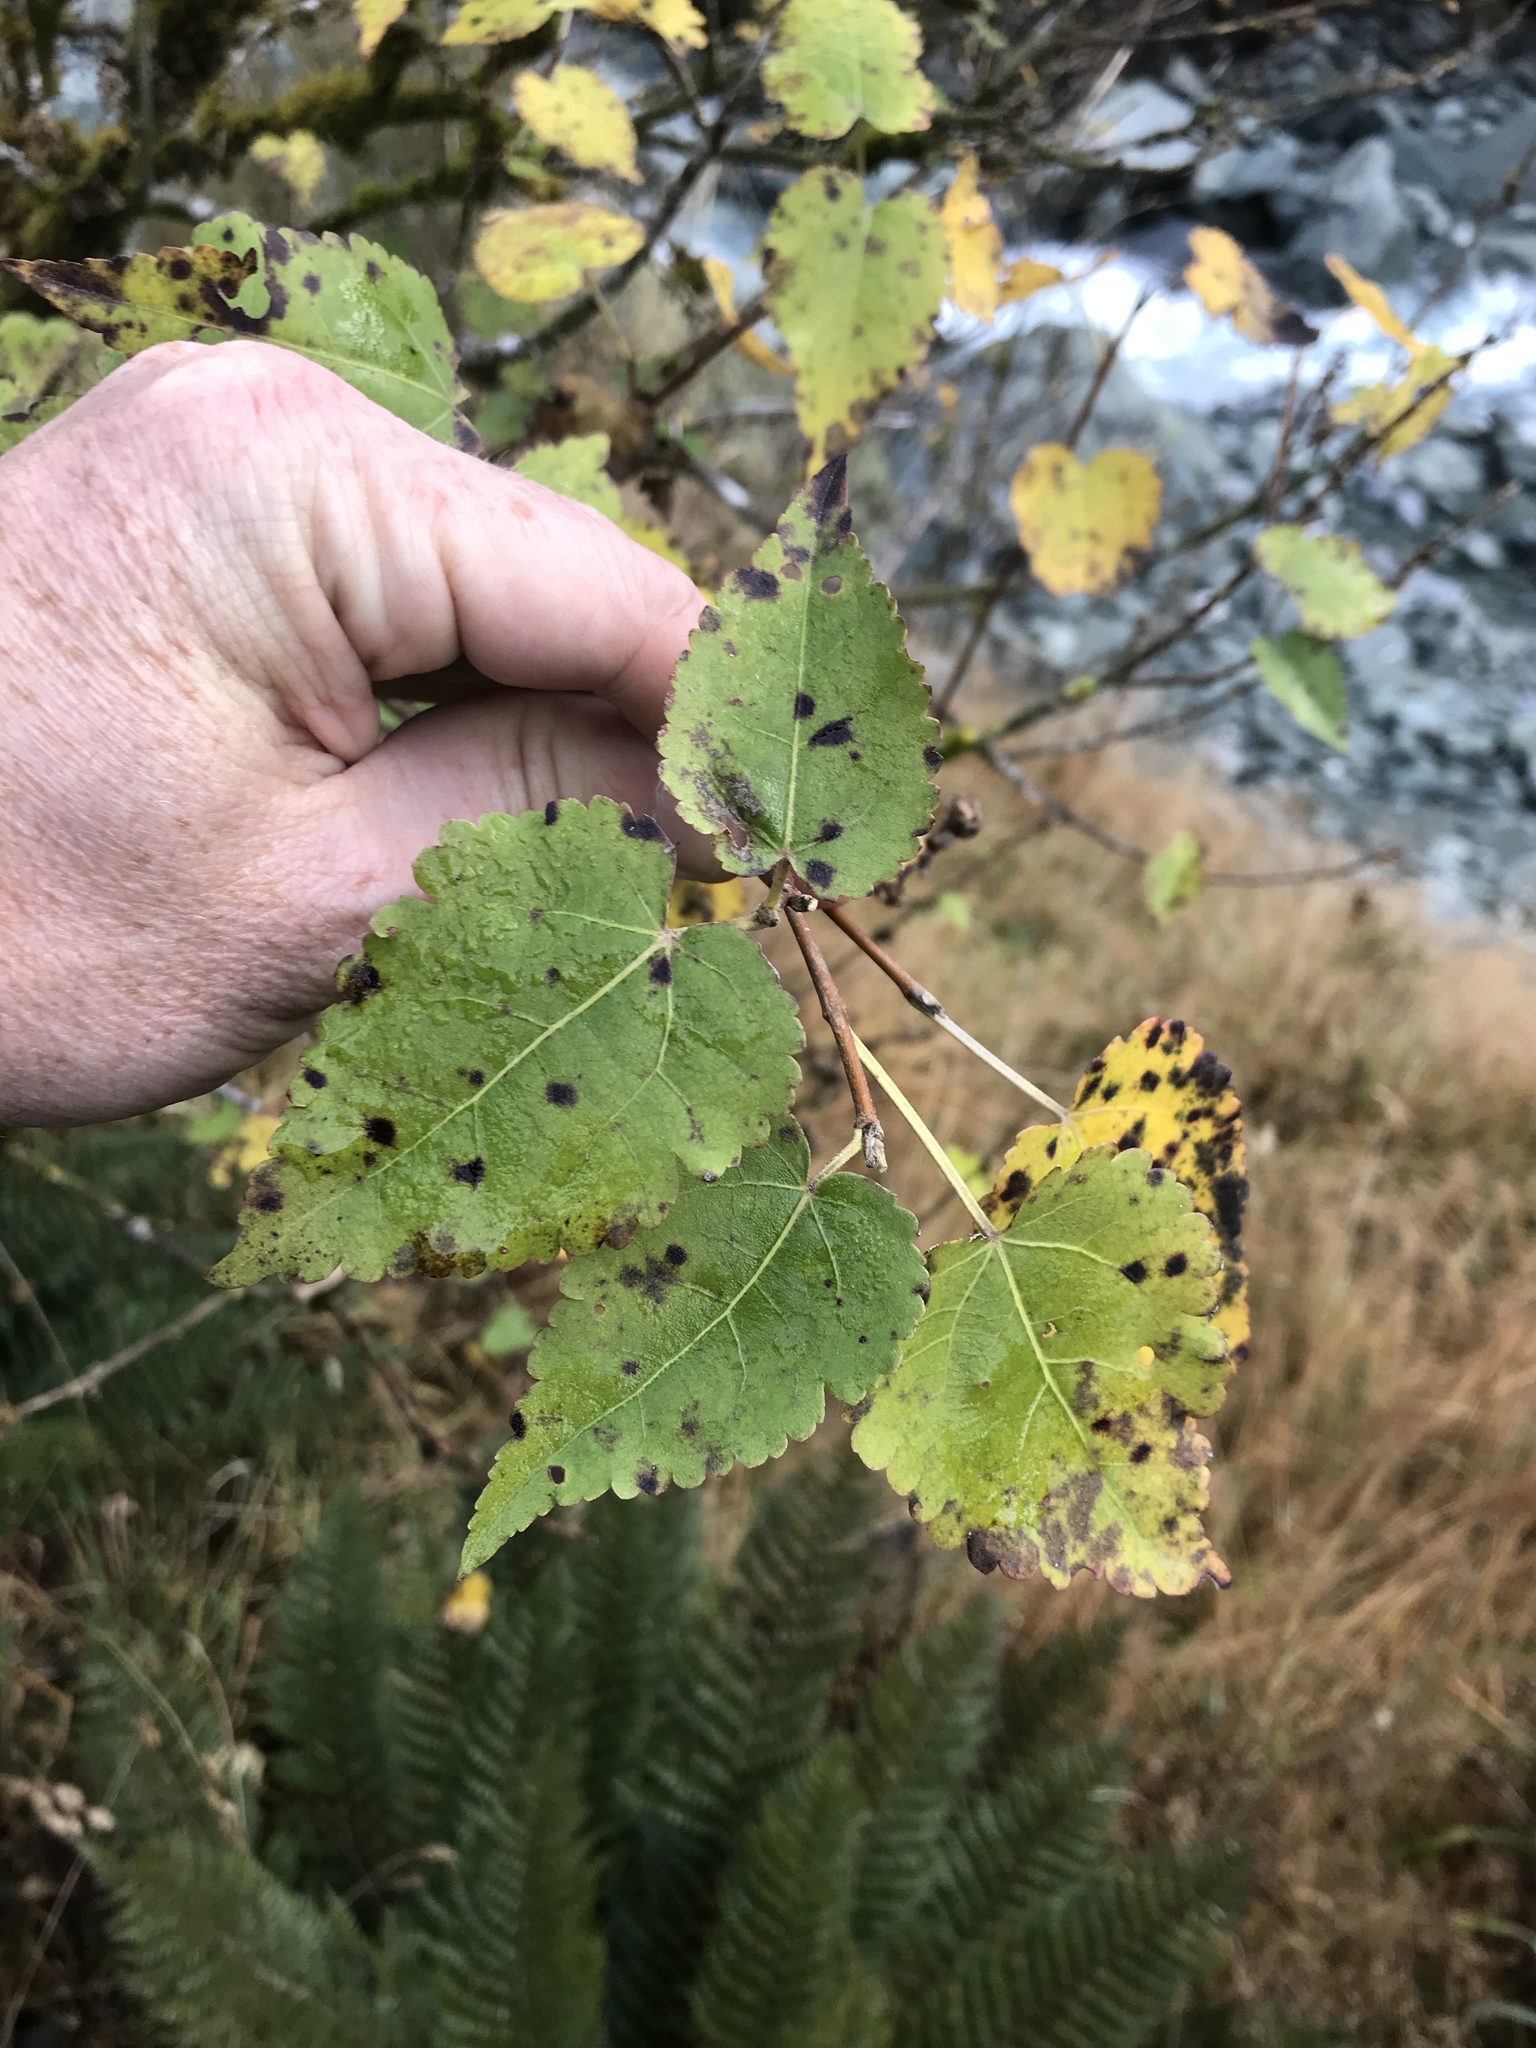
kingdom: Plantae
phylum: Tracheophyta
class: Magnoliopsida
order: Malvales
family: Malvaceae
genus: Hoheria
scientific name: Hoheria glabrata
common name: Mountain-ribbon
